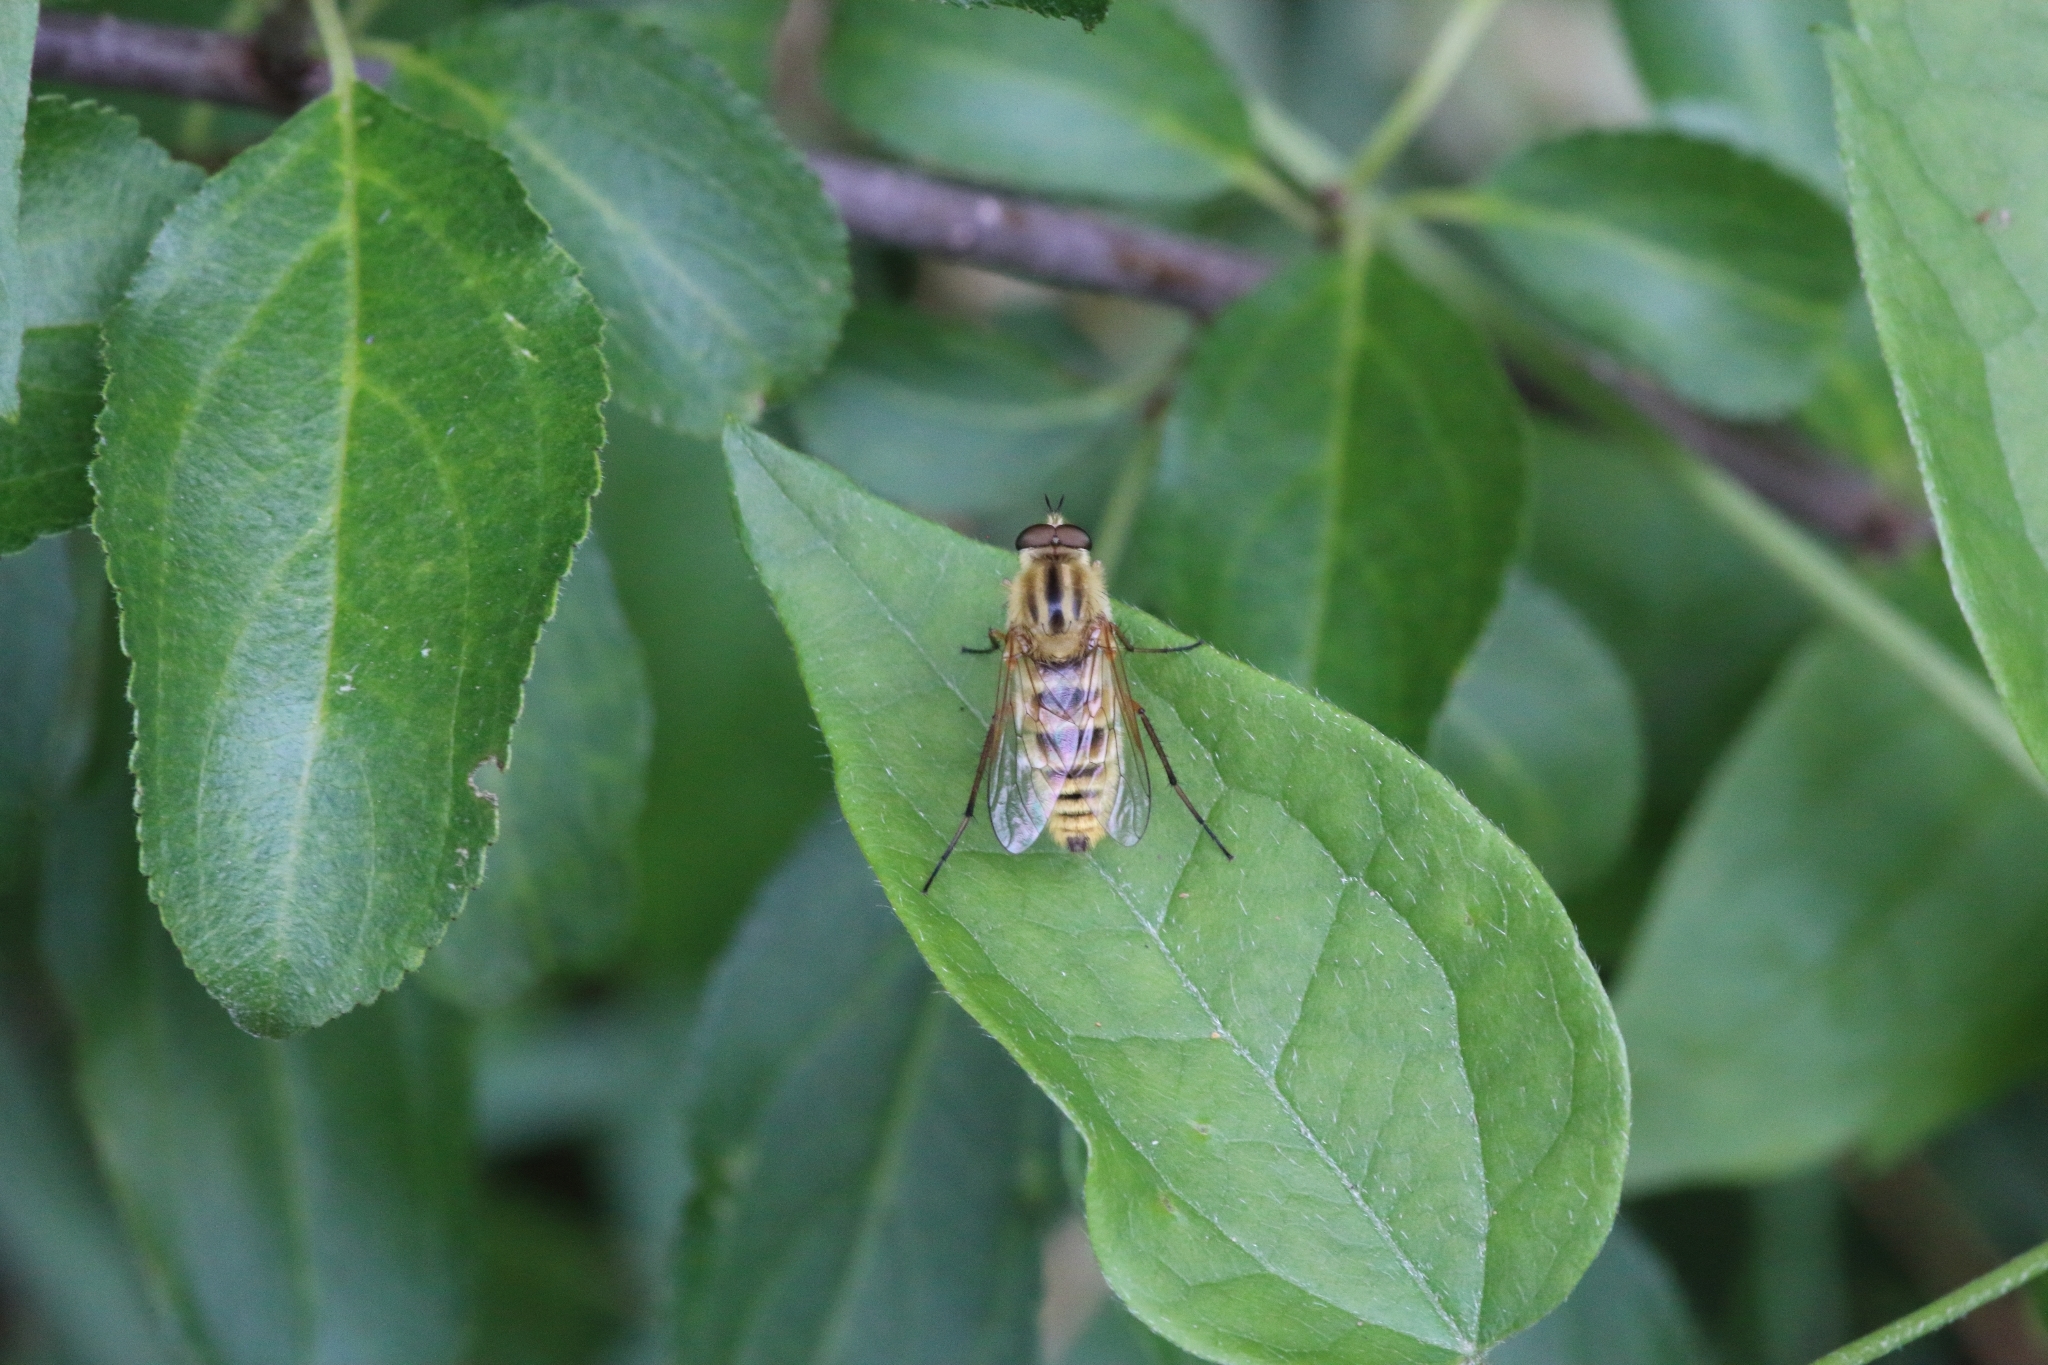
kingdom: Animalia
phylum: Arthropoda
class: Insecta
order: Diptera
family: Therevidae
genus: Thereva
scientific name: Thereva aurata
